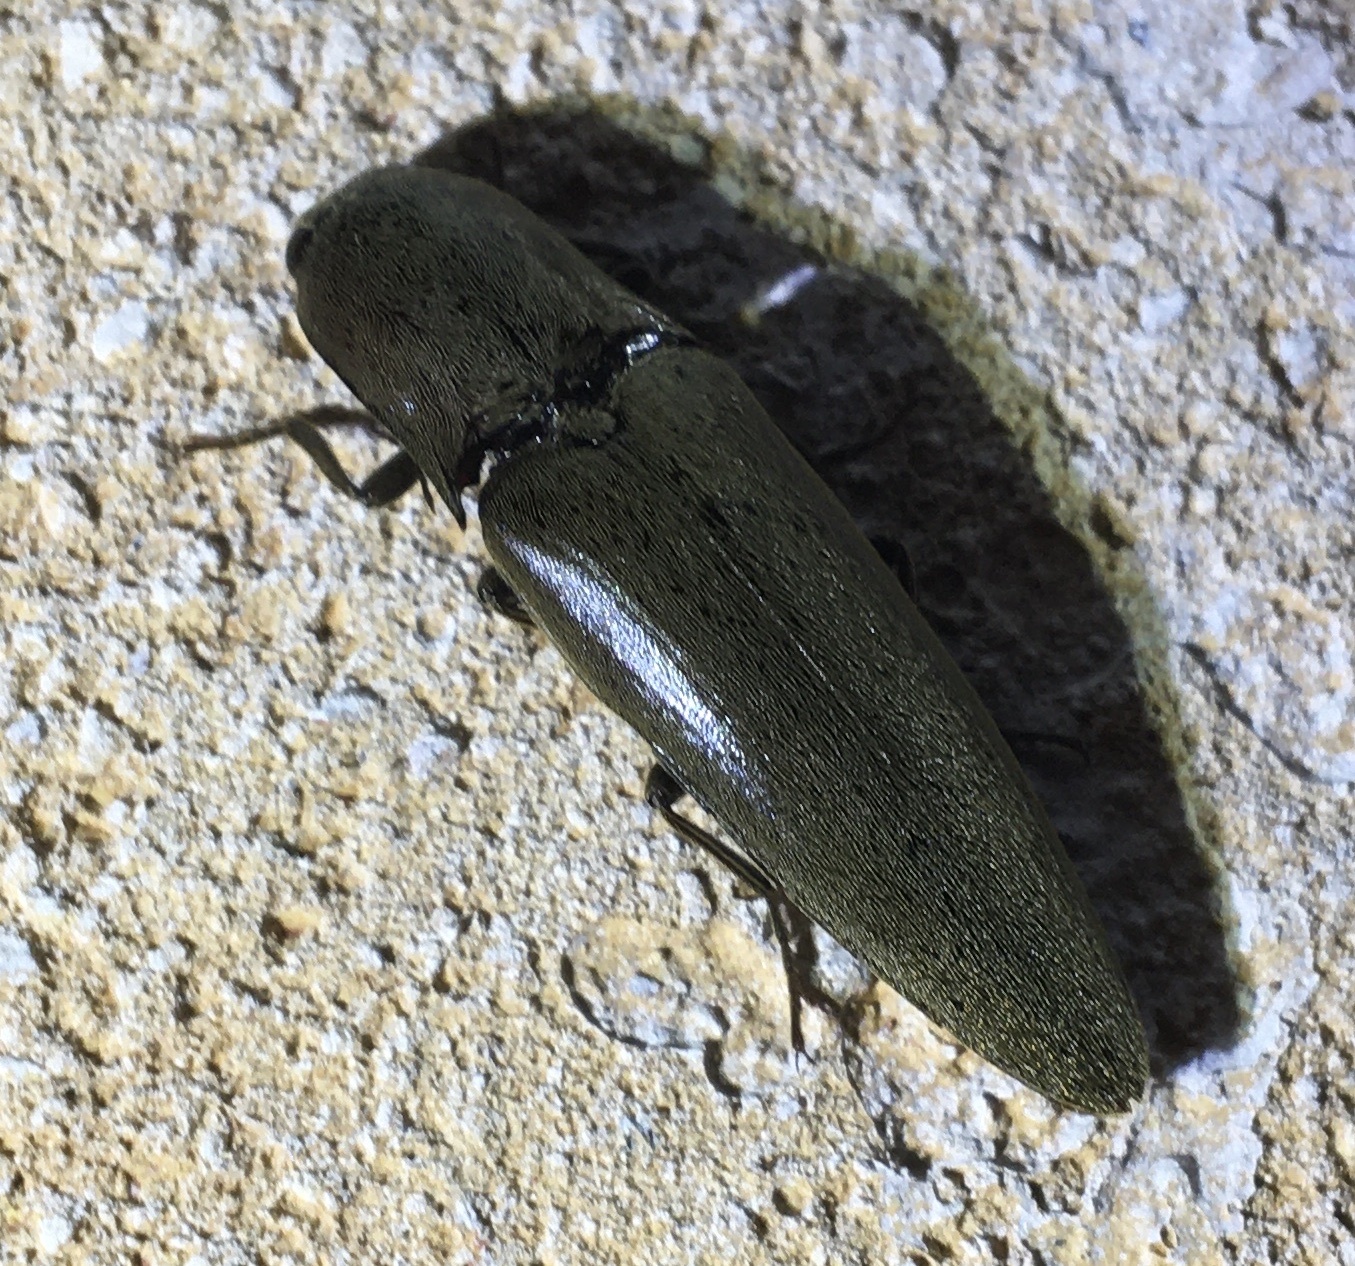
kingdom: Animalia
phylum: Arthropoda
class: Insecta
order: Coleoptera
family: Elateridae
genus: Orthostethus
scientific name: Orthostethus infuscatus
